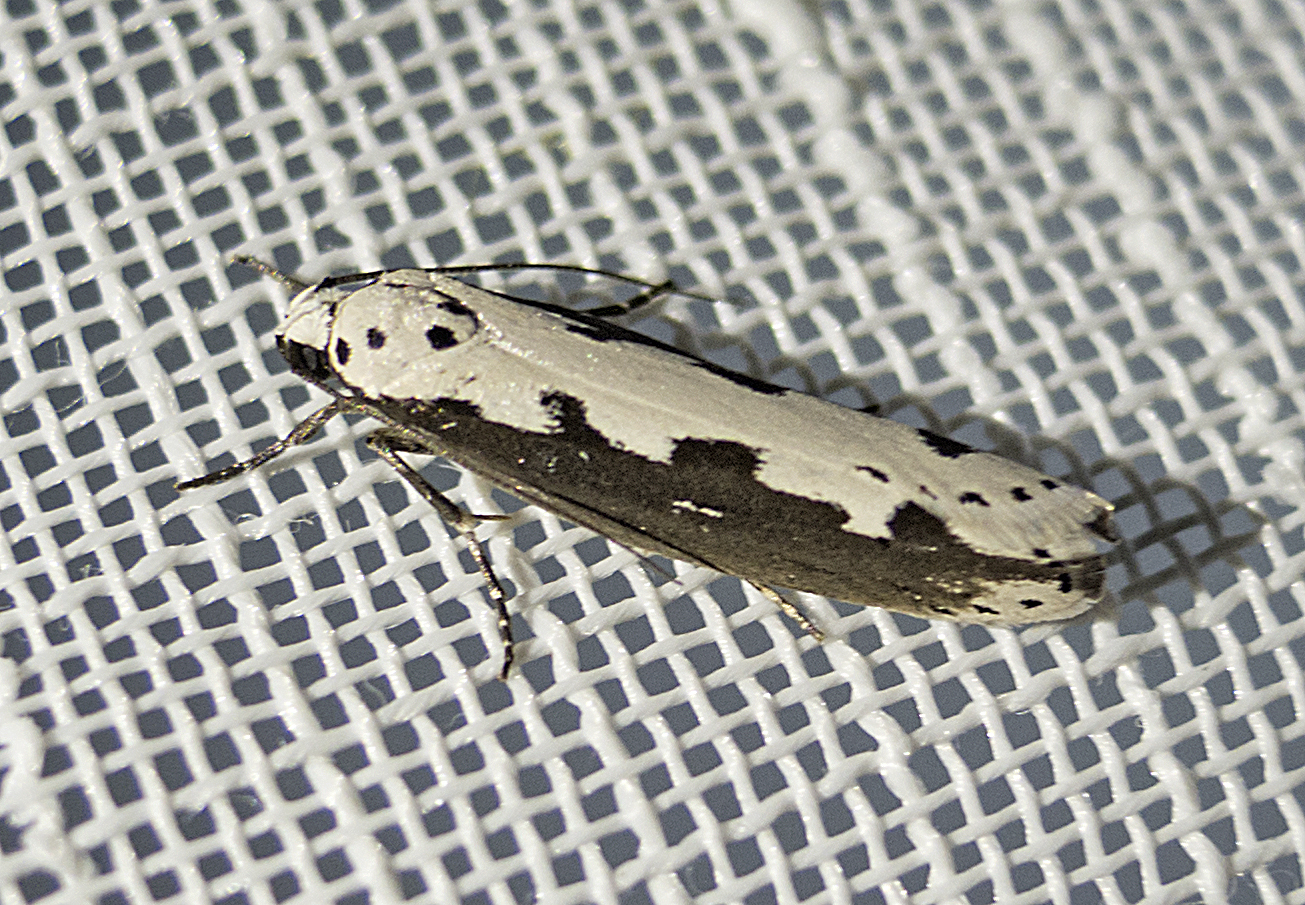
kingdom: Animalia
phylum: Arthropoda
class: Insecta
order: Lepidoptera
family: Ethmiidae
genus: Ethmia
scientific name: Ethmia bipunctella
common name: Bordered ermel
